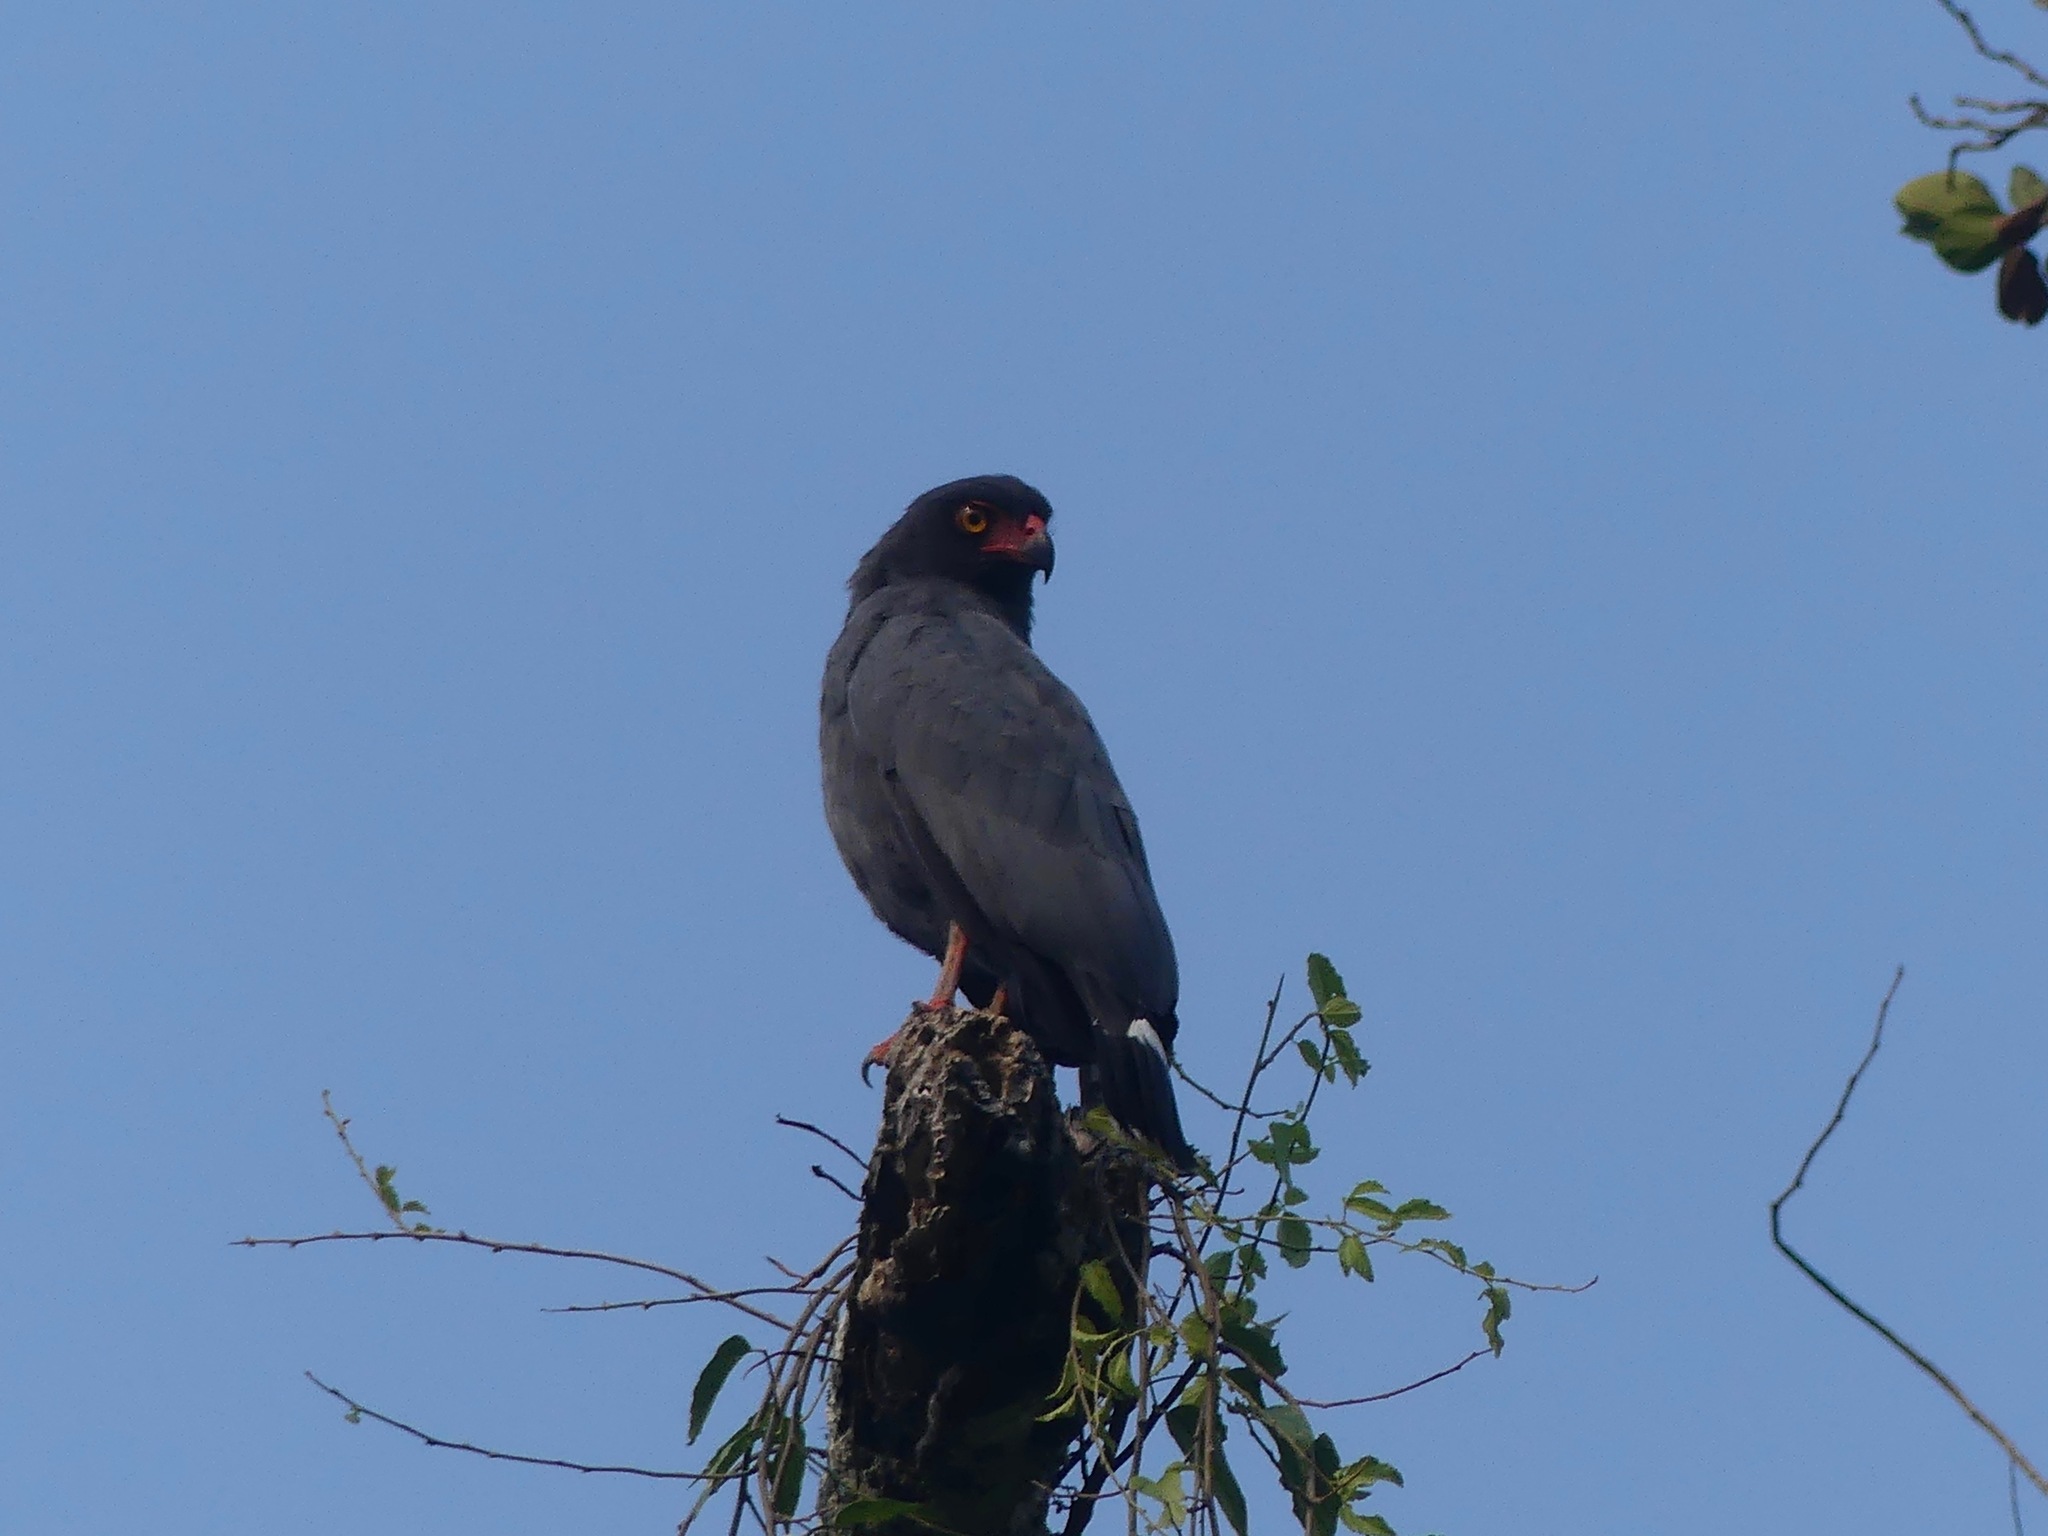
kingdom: Animalia
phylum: Chordata
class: Aves
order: Accipitriformes
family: Accipitridae
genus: Leucopternis
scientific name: Leucopternis schistaceus
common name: Slate-colored hawk
